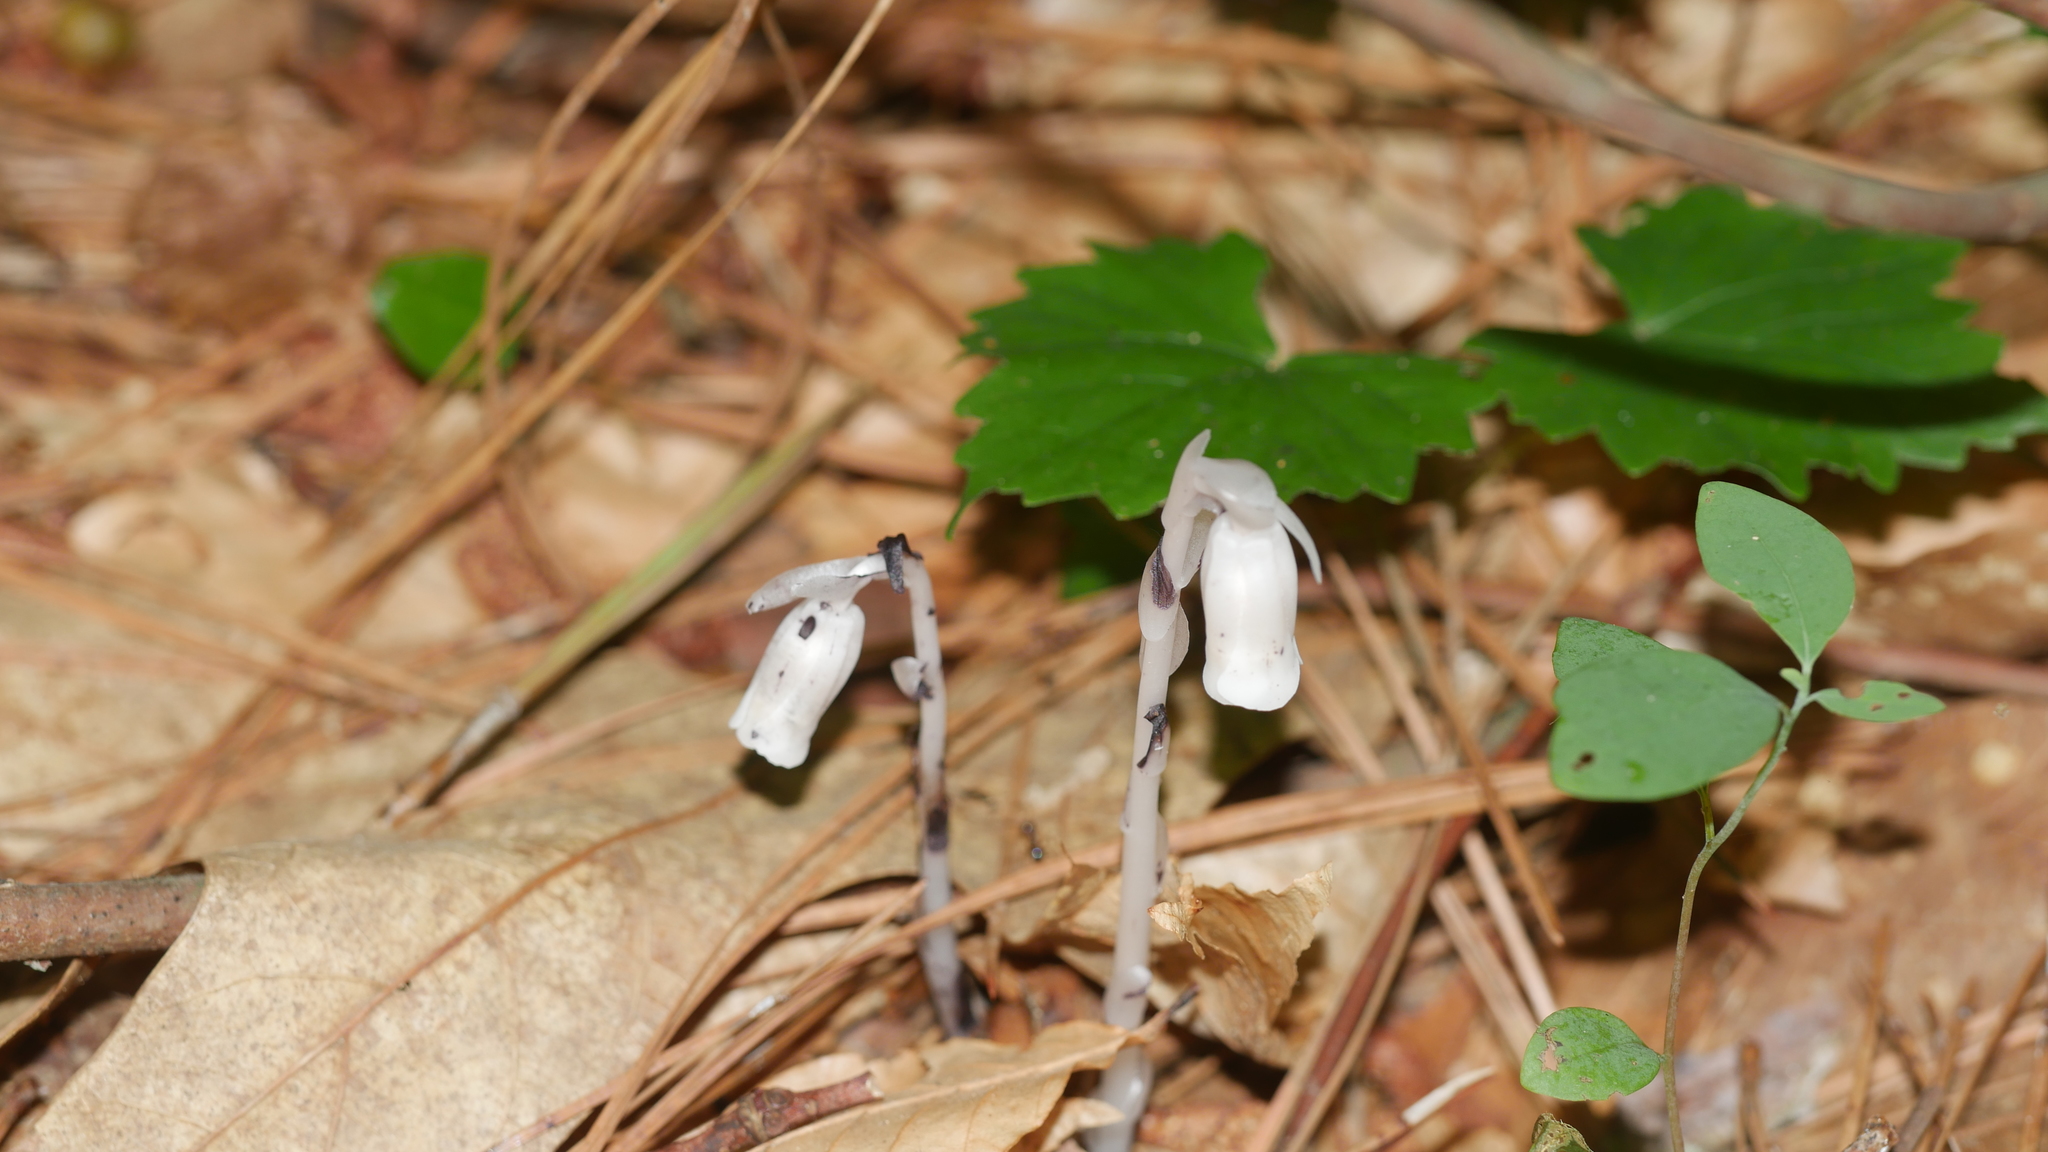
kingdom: Plantae
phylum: Tracheophyta
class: Magnoliopsida
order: Ericales
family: Ericaceae
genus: Monotropa
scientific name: Monotropa uniflora
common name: Convulsion root
